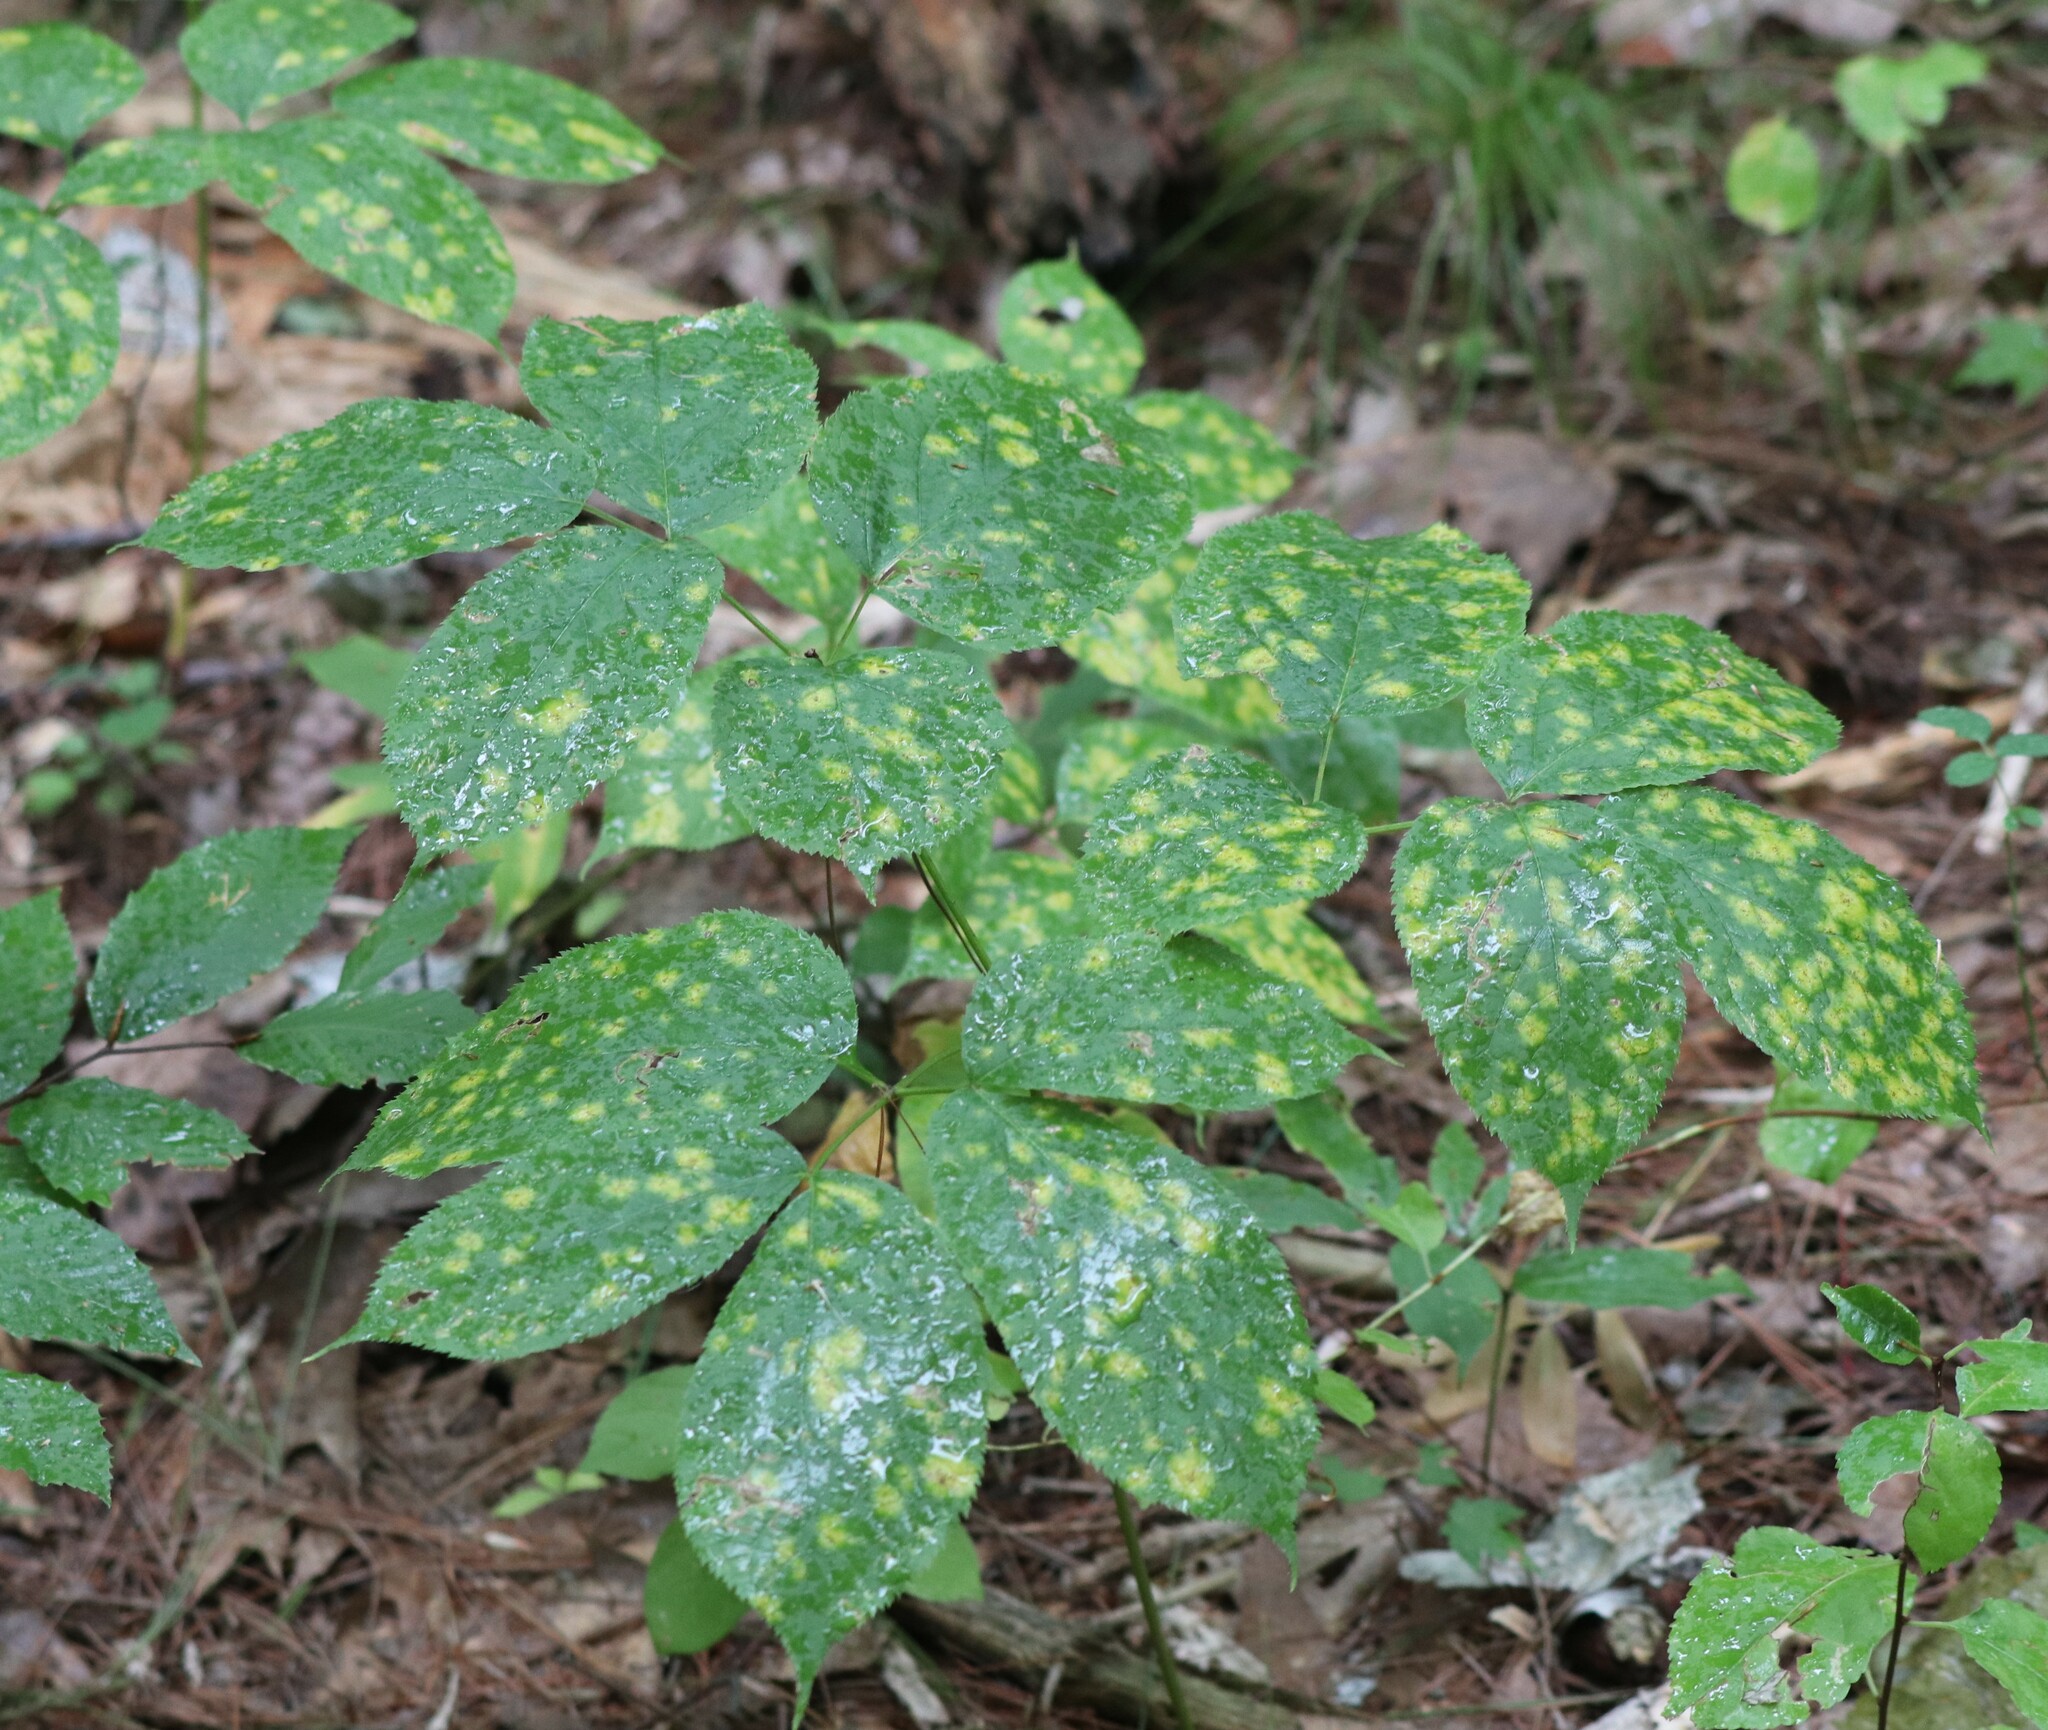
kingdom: Plantae
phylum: Tracheophyta
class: Magnoliopsida
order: Apiales
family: Araliaceae
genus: Aralia
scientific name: Aralia nudicaulis
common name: Wild sarsaparilla
